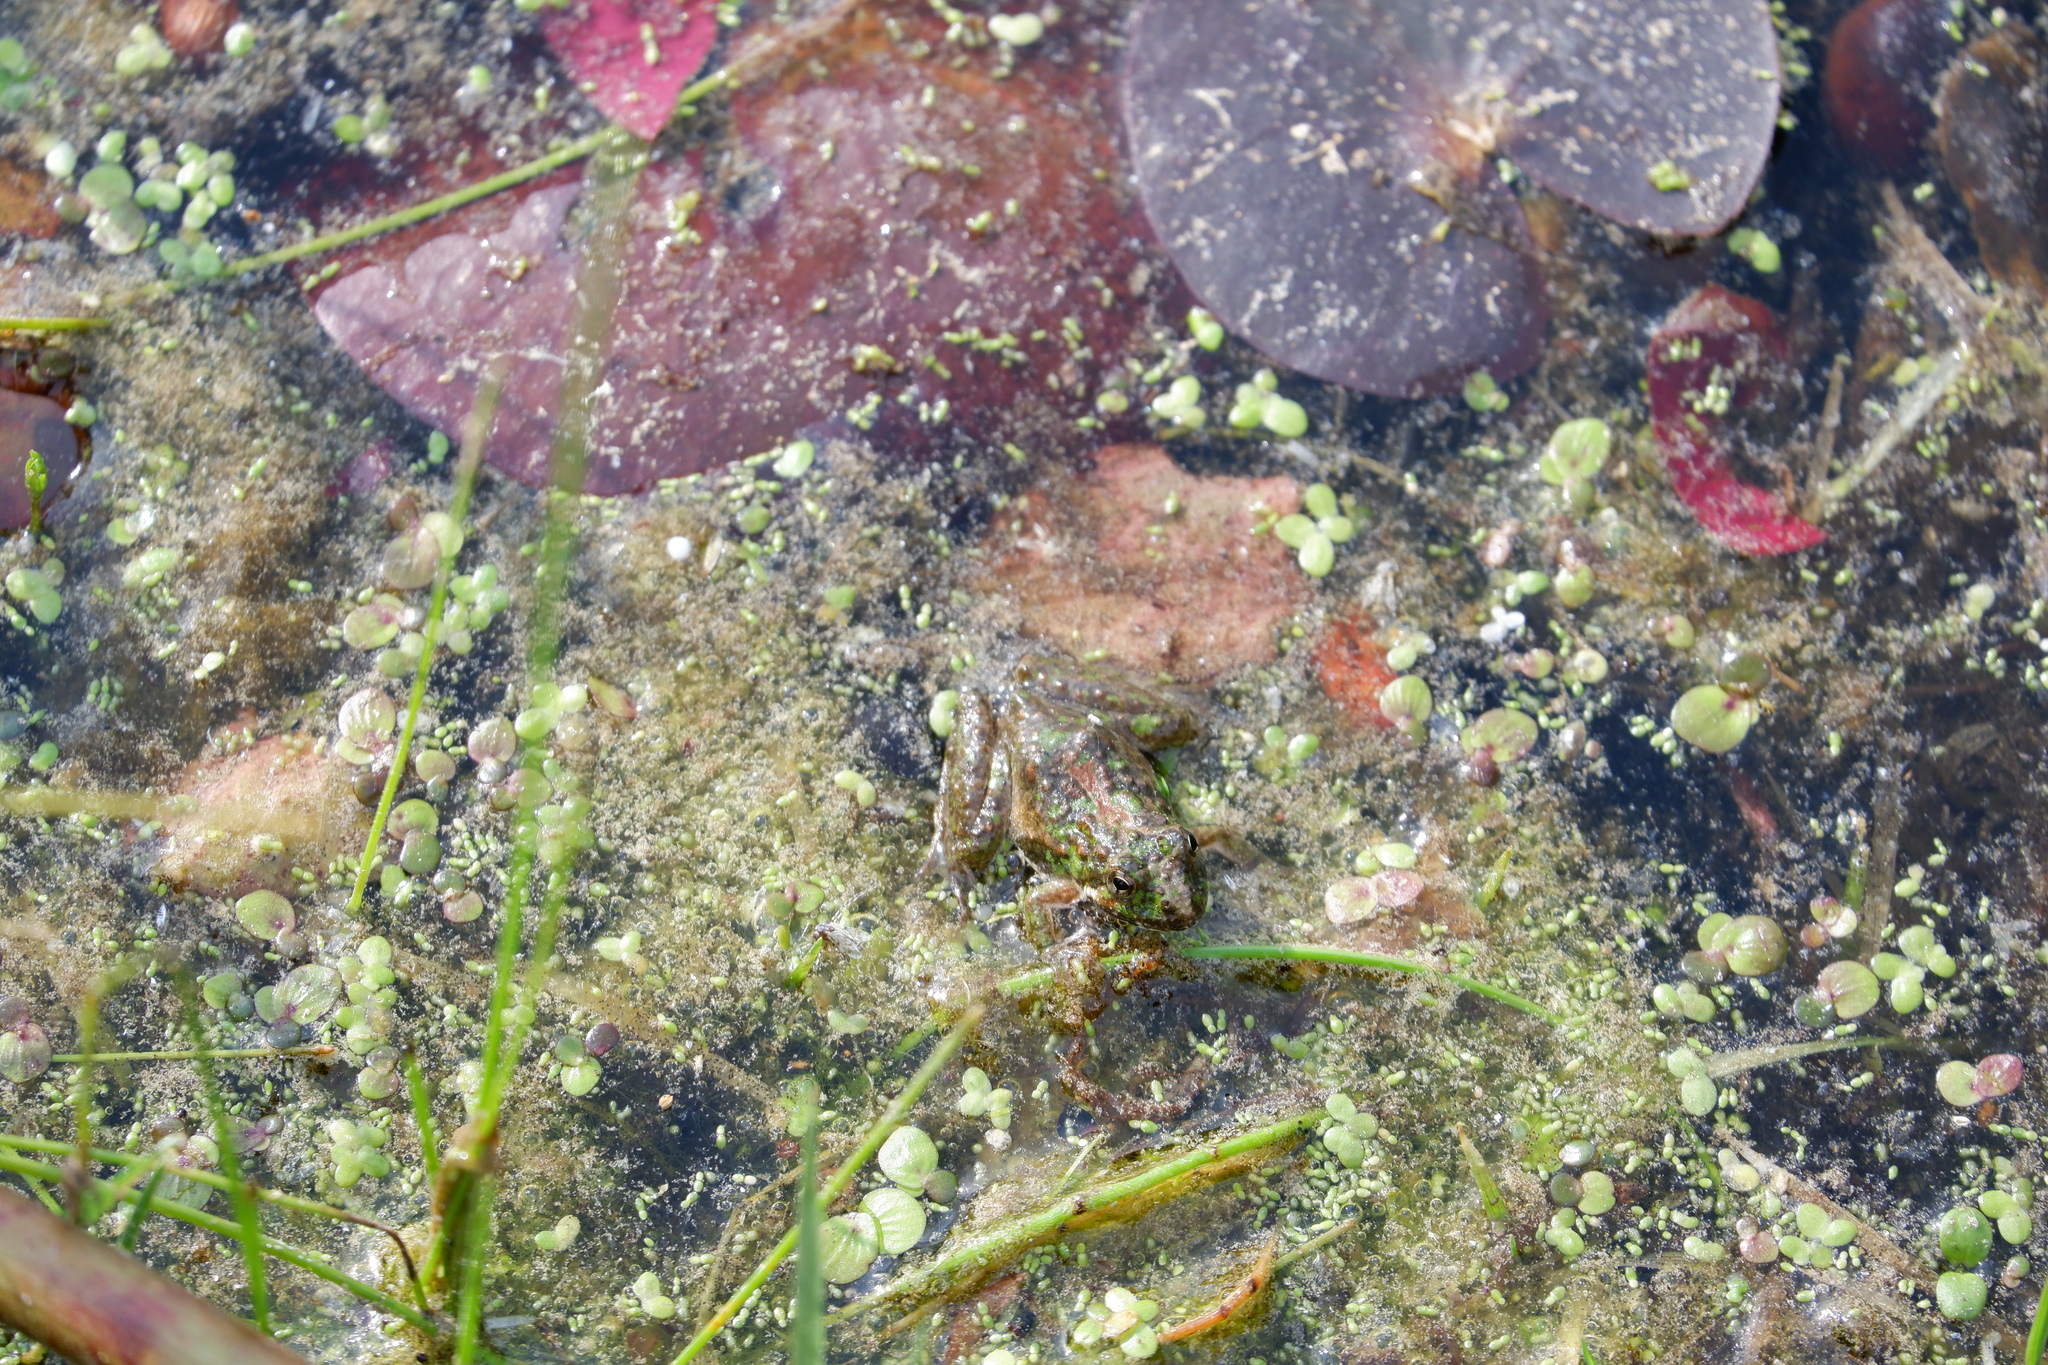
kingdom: Animalia
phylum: Chordata
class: Amphibia
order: Anura
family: Hylidae
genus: Acris
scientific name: Acris crepitans
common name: Northern cricket frog
